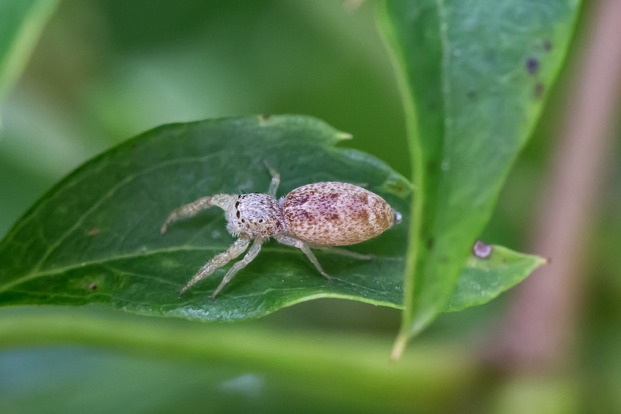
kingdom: Animalia
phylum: Arthropoda
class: Arachnida
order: Araneae
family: Salticidae
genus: Hentzia
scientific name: Hentzia mitrata
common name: White-jawed jumping spider
